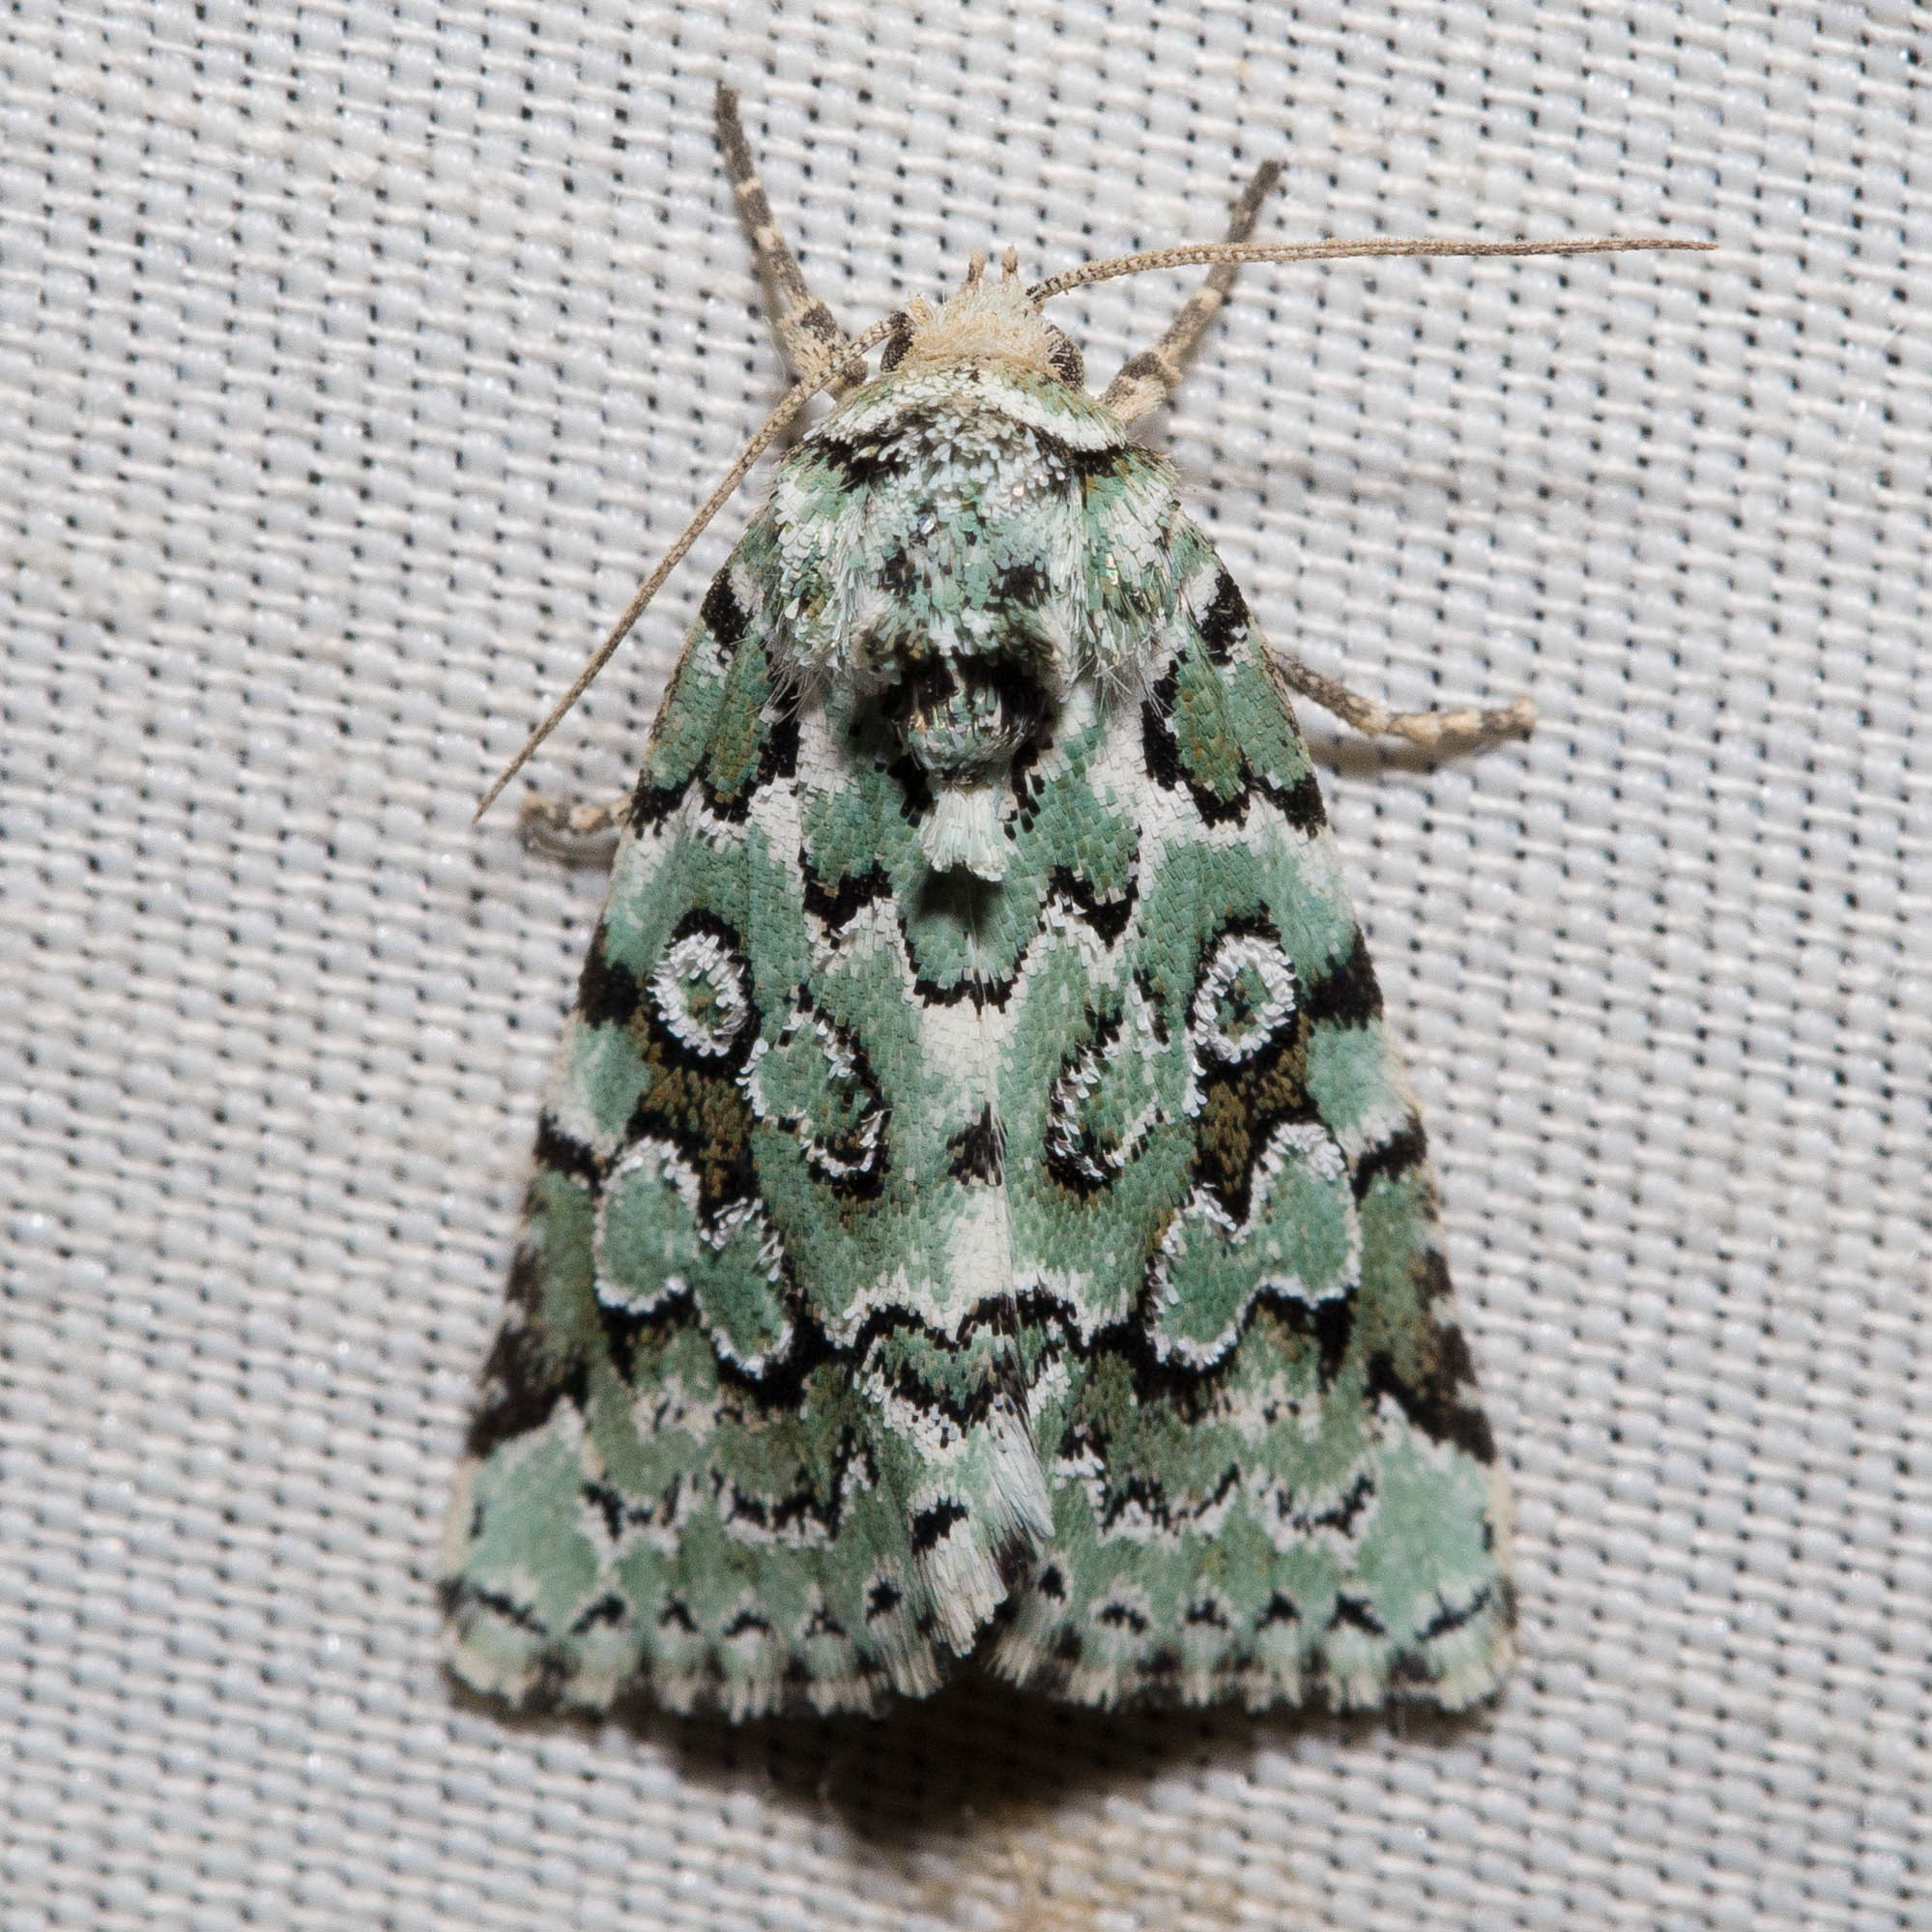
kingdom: Animalia
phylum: Arthropoda
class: Insecta
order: Lepidoptera
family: Noctuidae
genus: Bryolymnia
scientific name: Bryolymnia viridata
